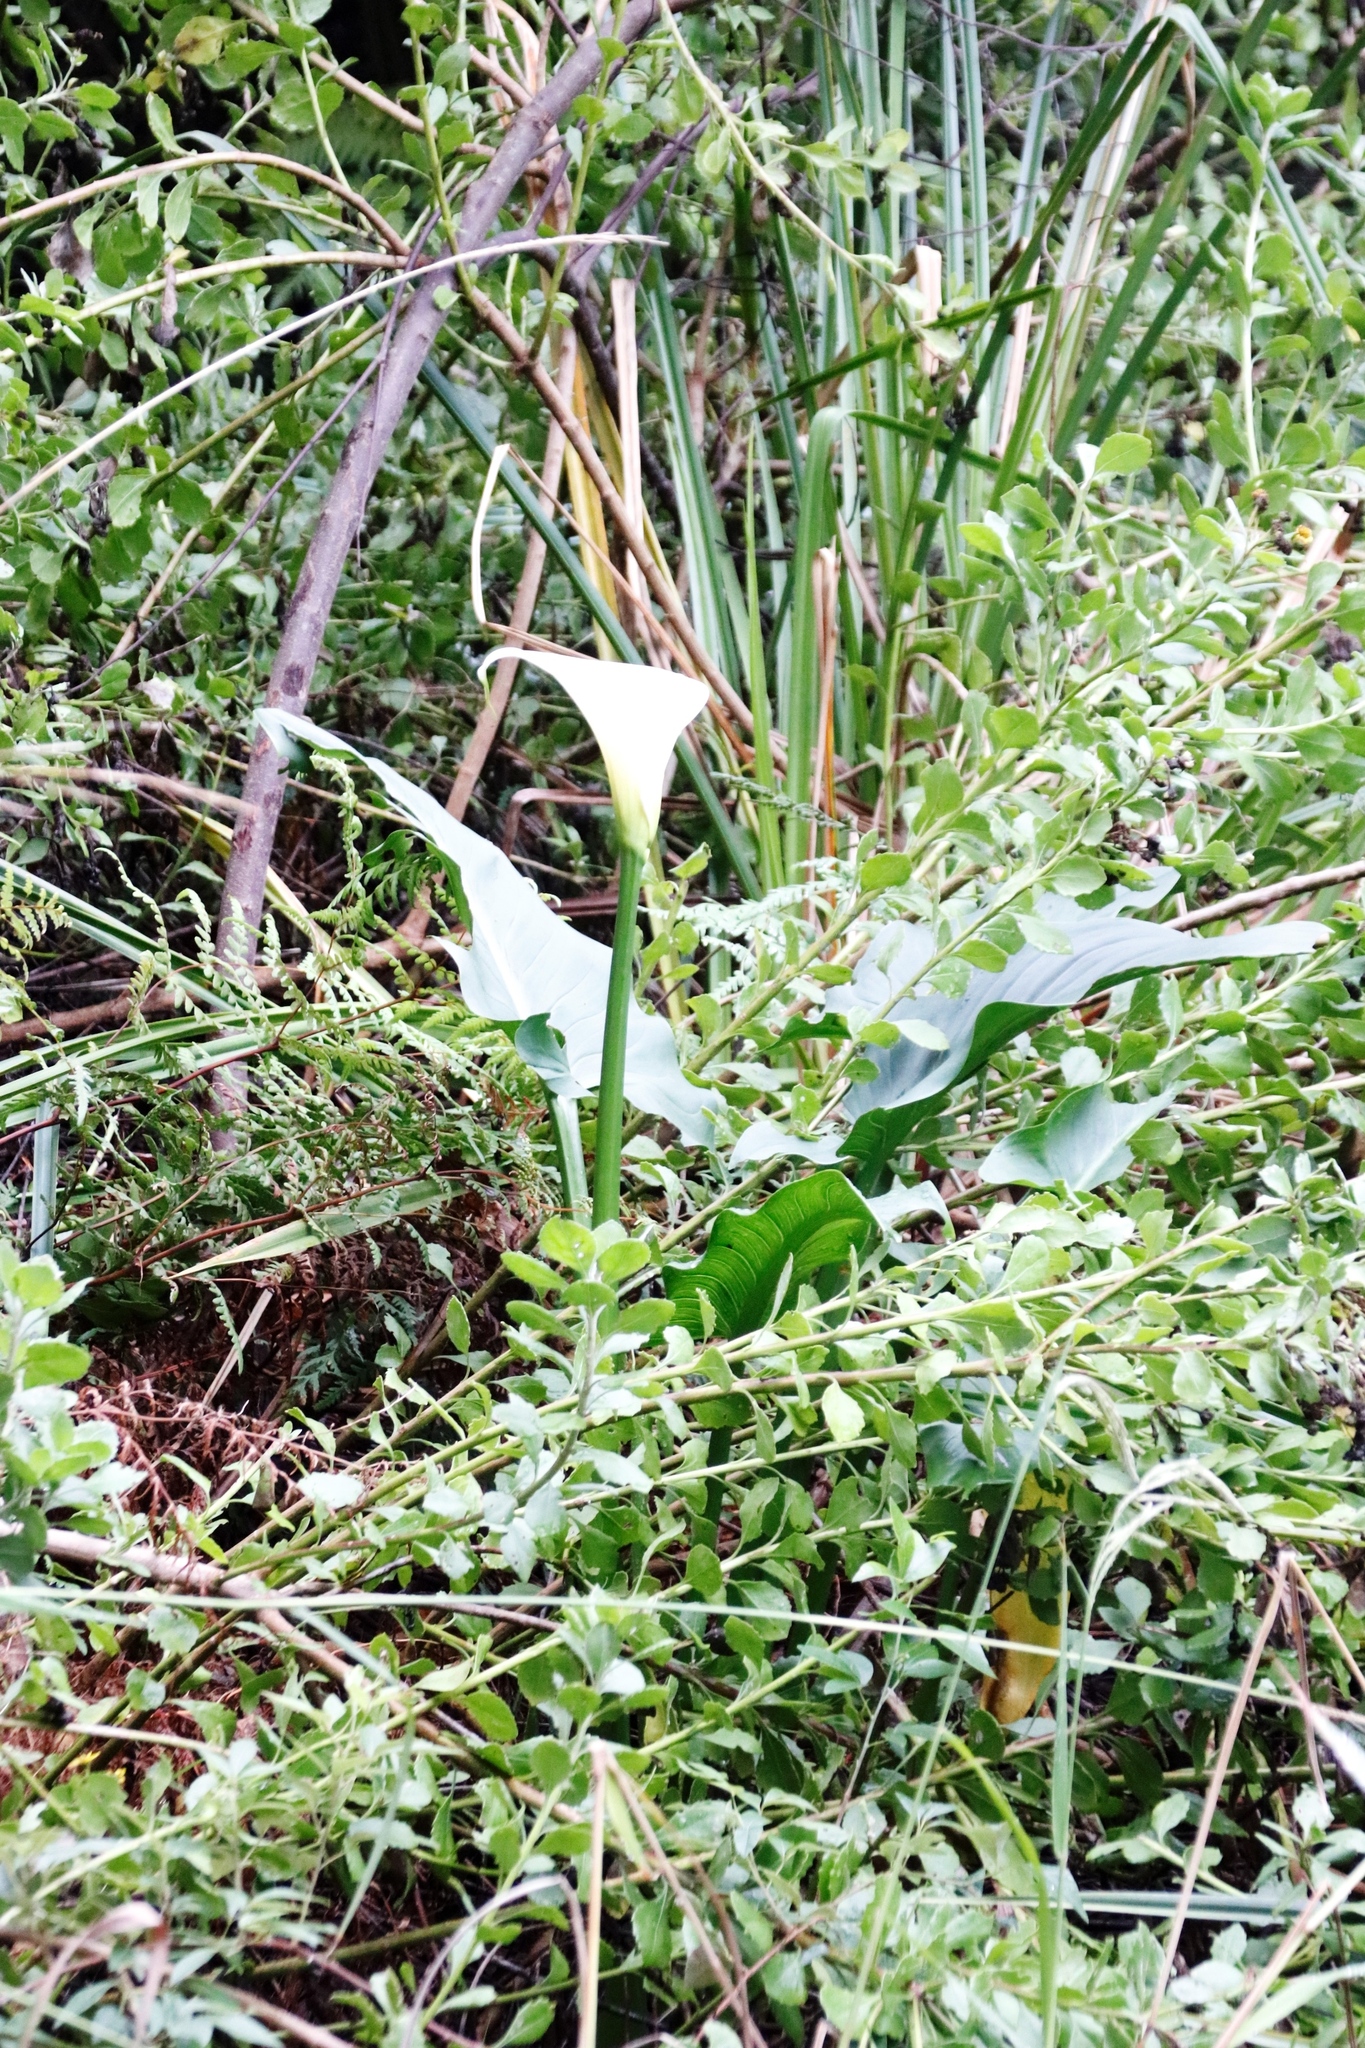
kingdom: Plantae
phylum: Tracheophyta
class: Liliopsida
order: Alismatales
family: Araceae
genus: Zantedeschia
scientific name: Zantedeschia aethiopica
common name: Altar-lily
